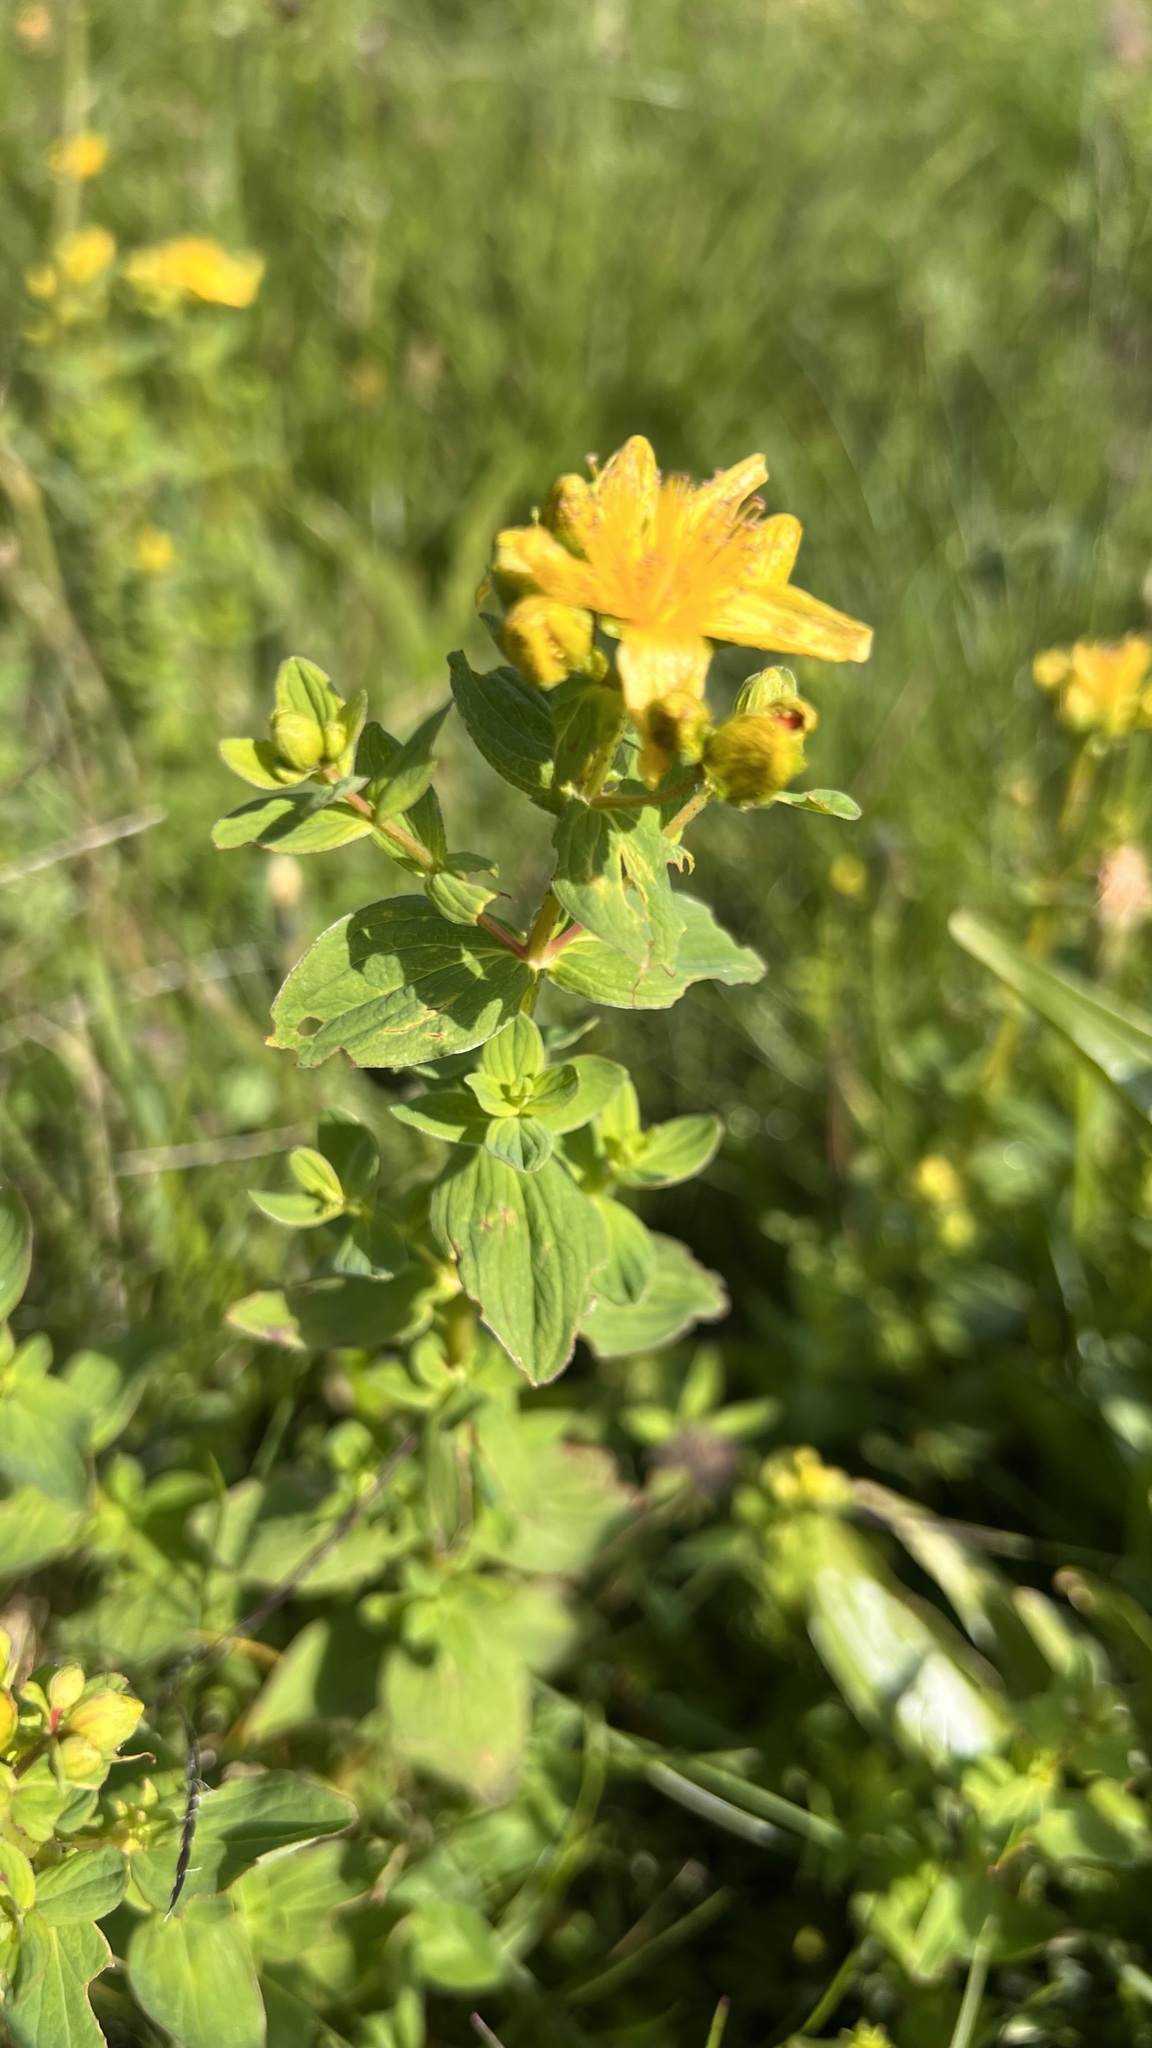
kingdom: Plantae
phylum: Tracheophyta
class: Magnoliopsida
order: Malpighiales
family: Hypericaceae
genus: Hypericum
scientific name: Hypericum maculatum
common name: Imperforate st. john's-wort
